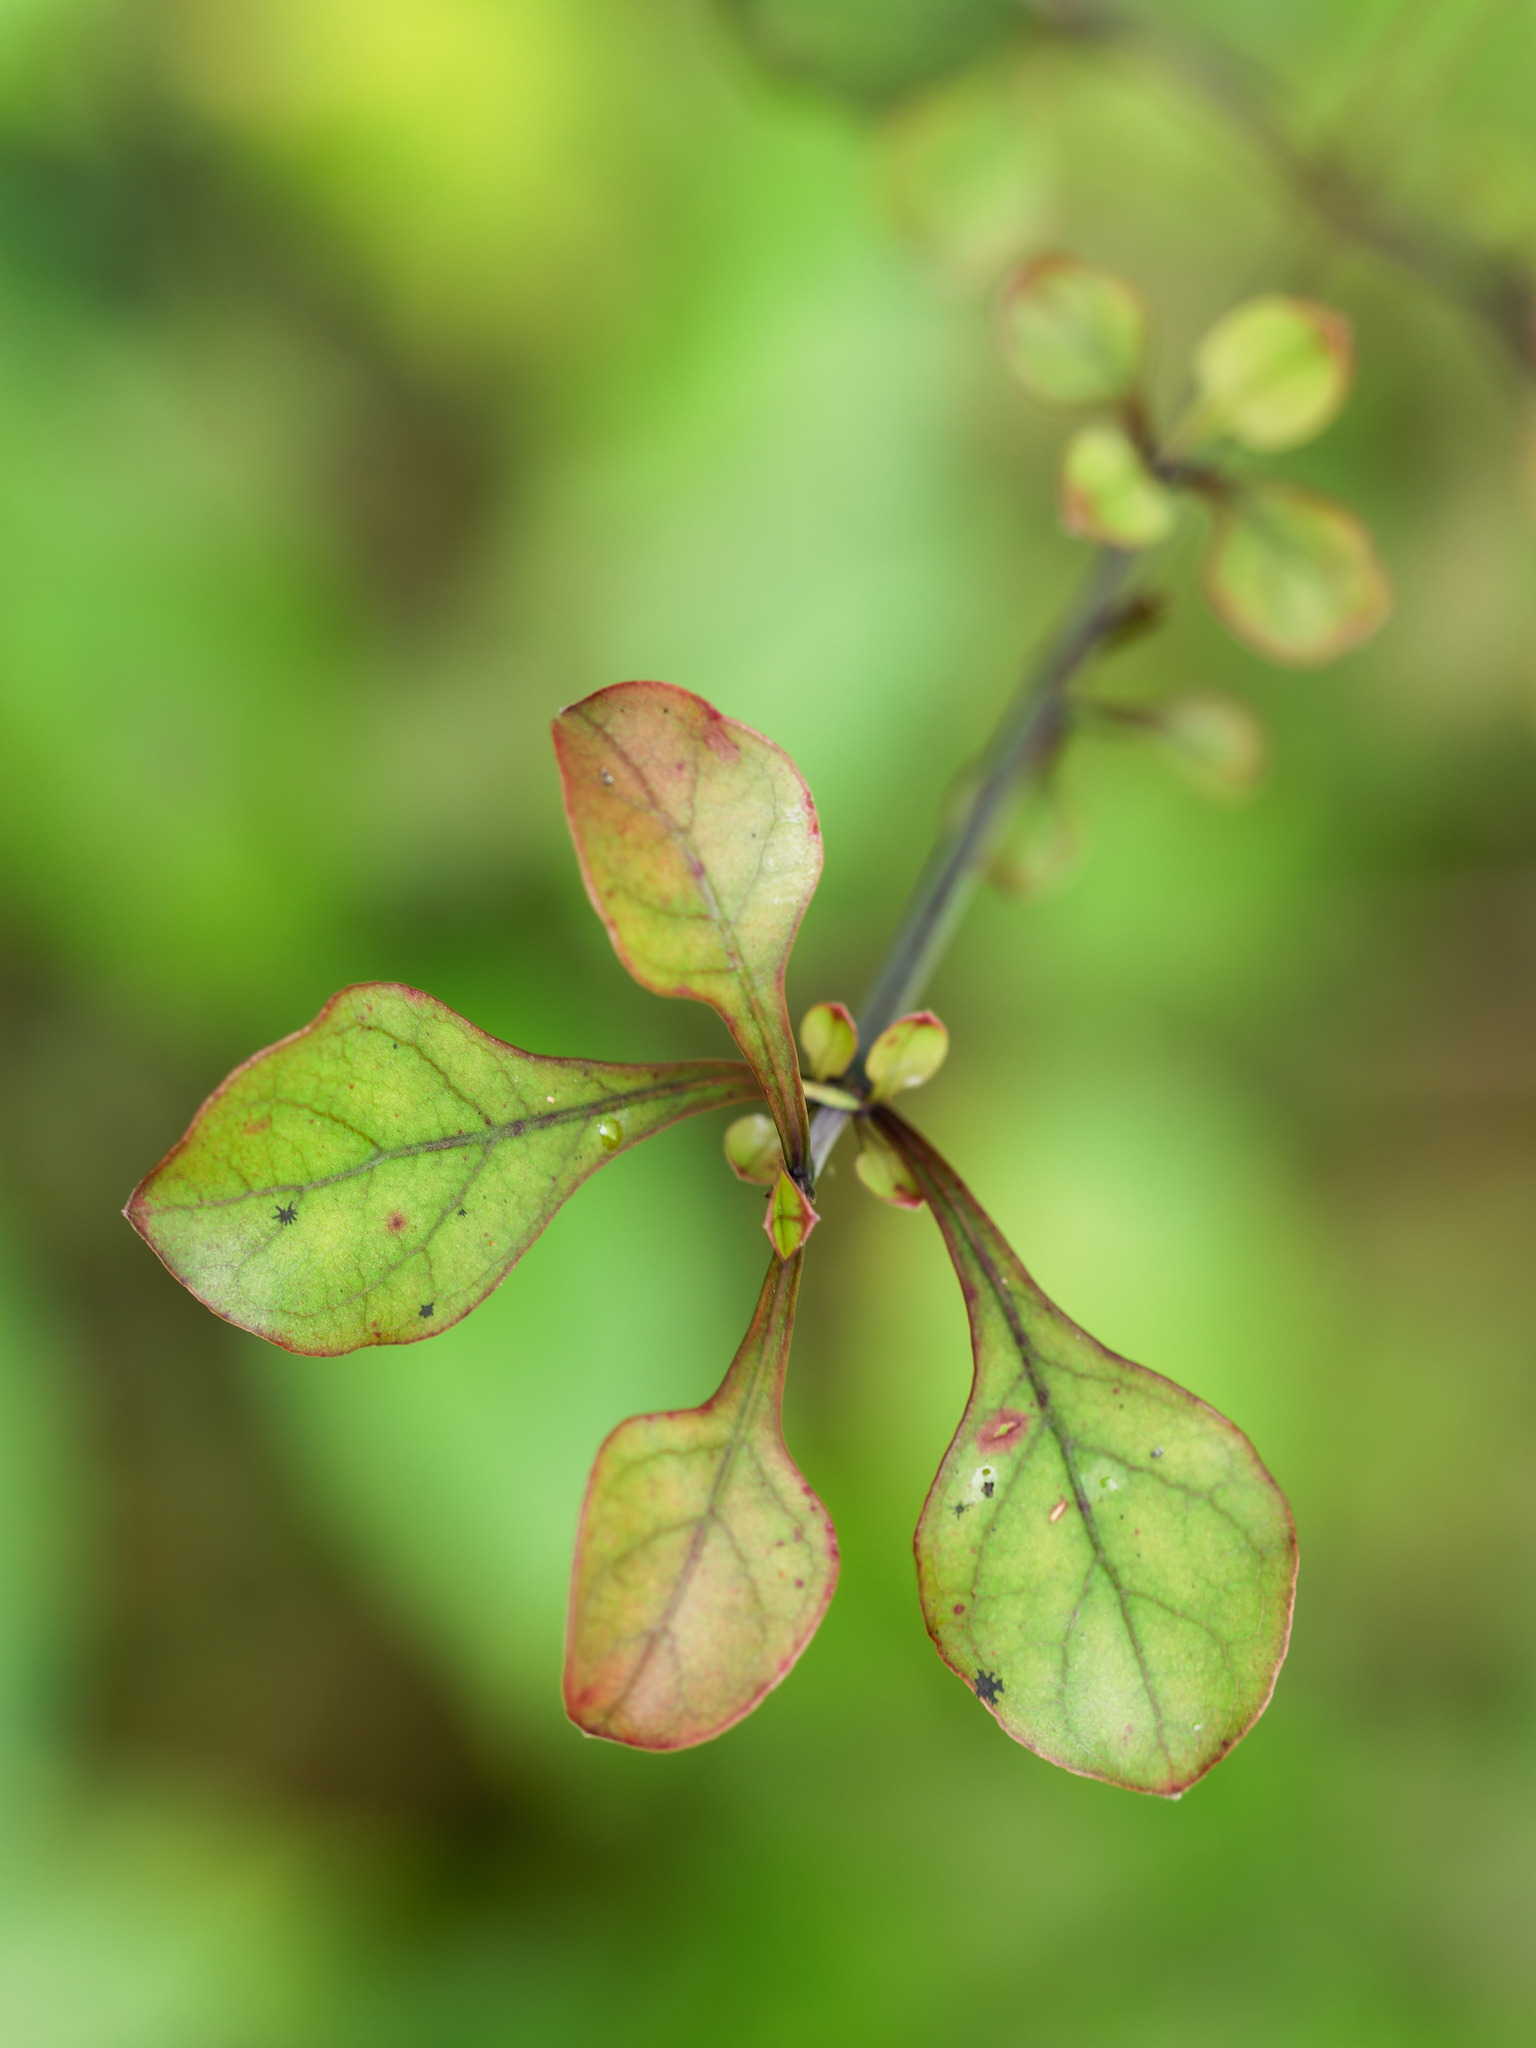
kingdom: Plantae
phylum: Tracheophyta
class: Magnoliopsida
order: Gentianales
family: Rubiaceae
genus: Coprosma
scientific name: Coprosma arborea
